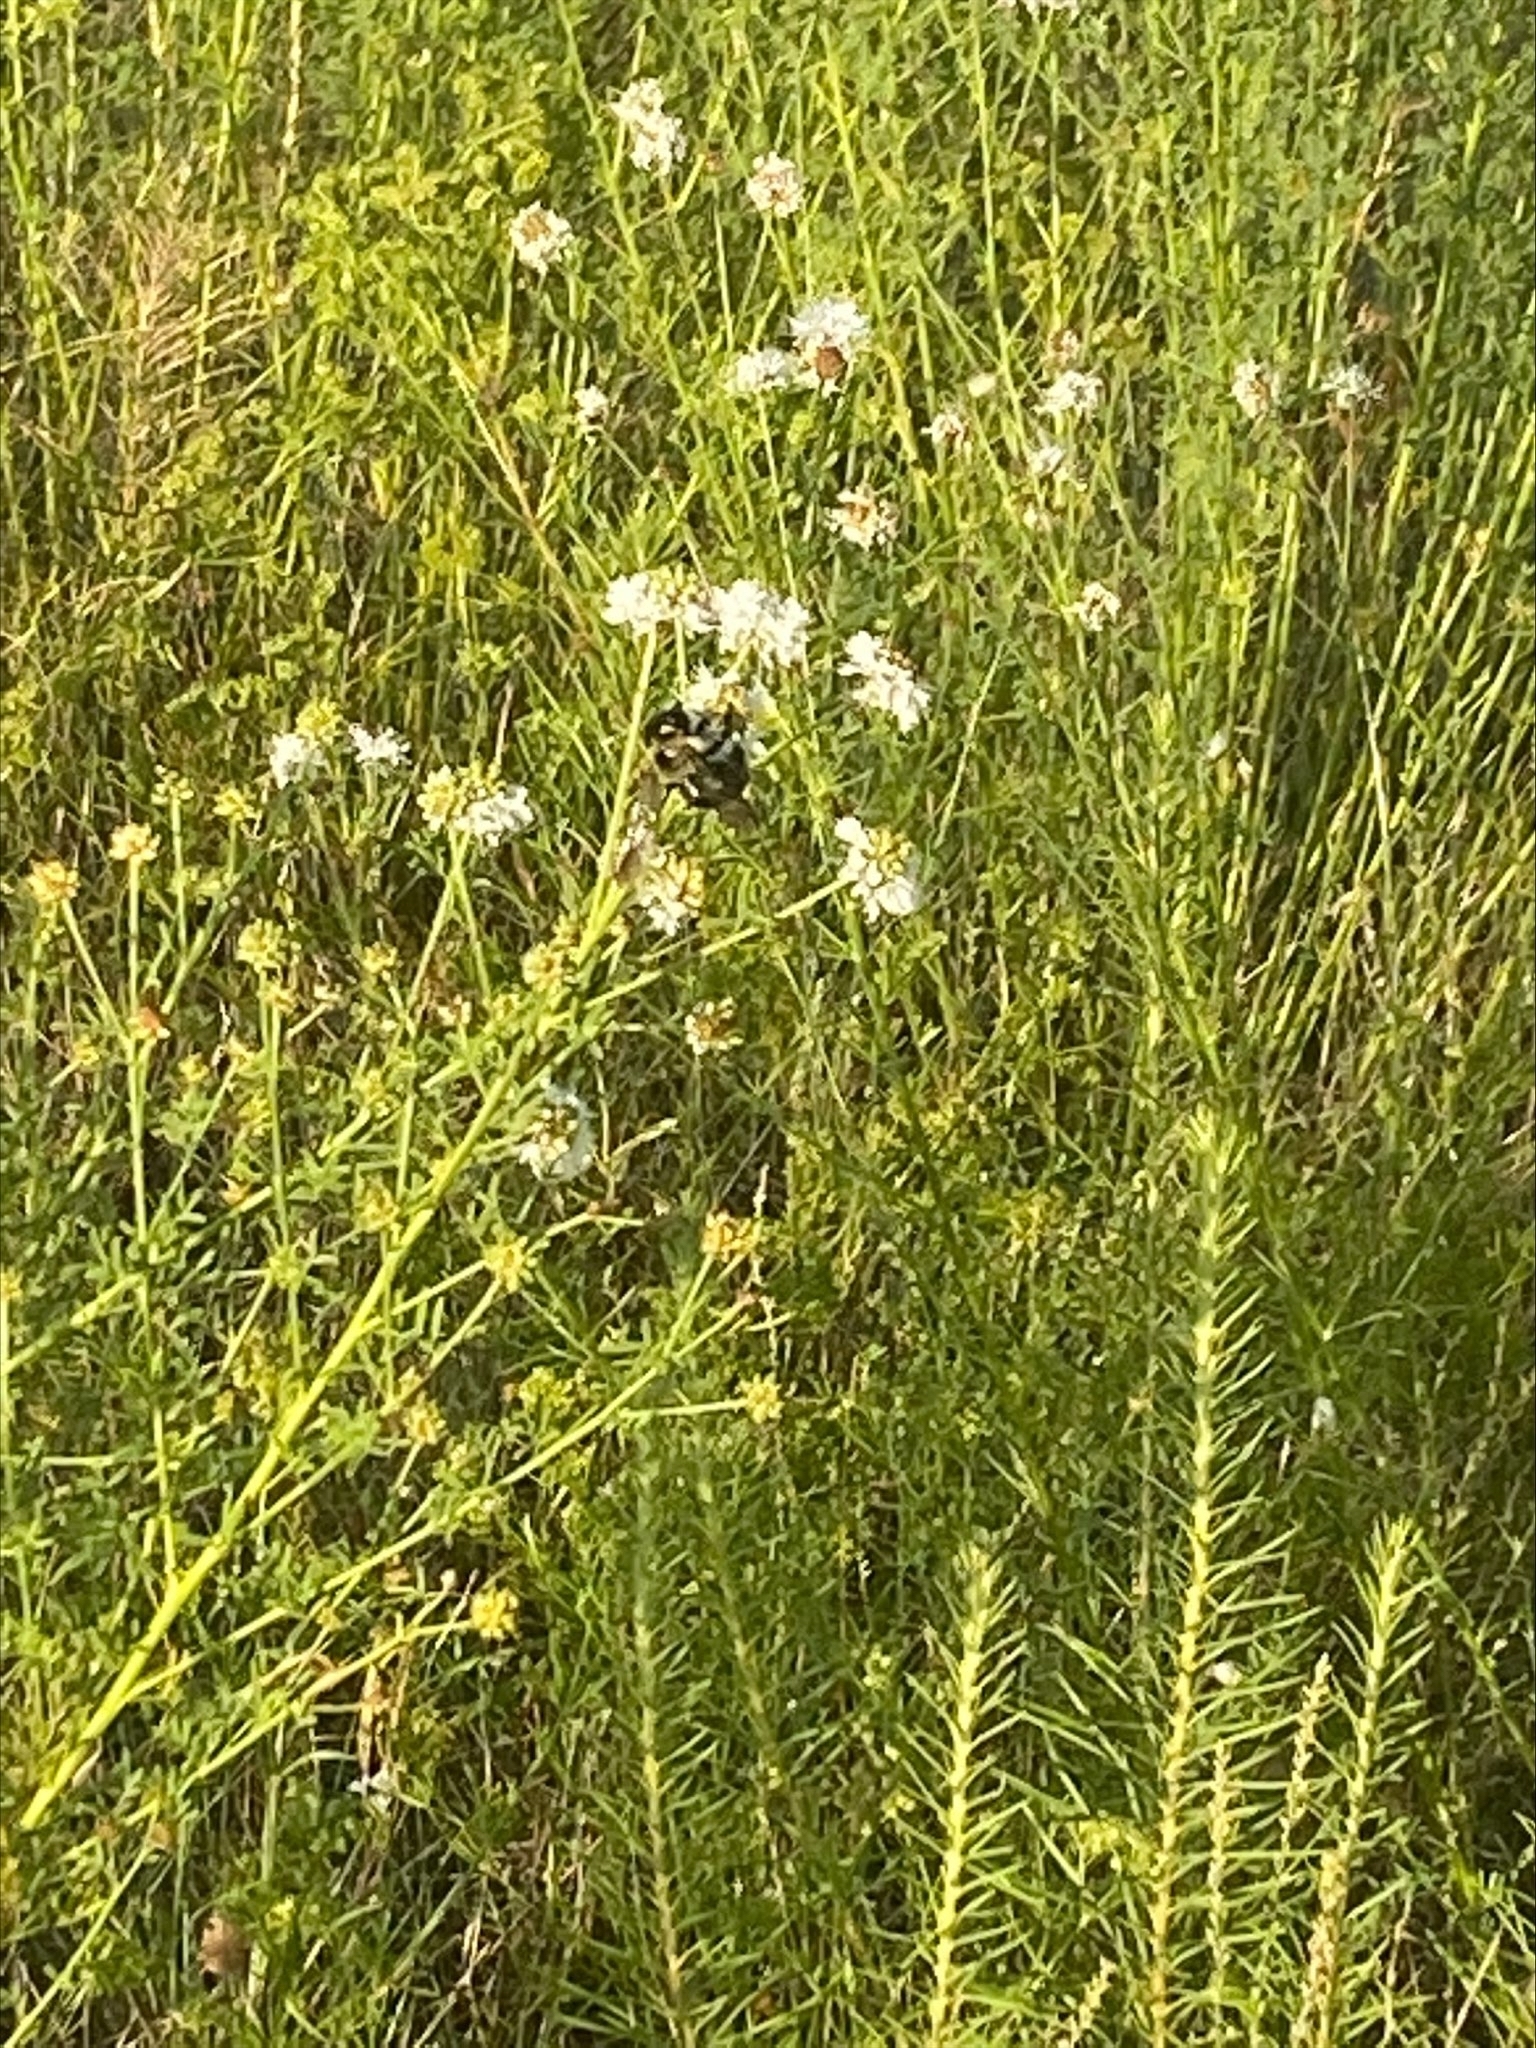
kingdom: Animalia
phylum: Arthropoda
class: Insecta
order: Hymenoptera
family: Apidae
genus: Xylocopa
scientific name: Xylocopa virginica
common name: Carpenter bee
